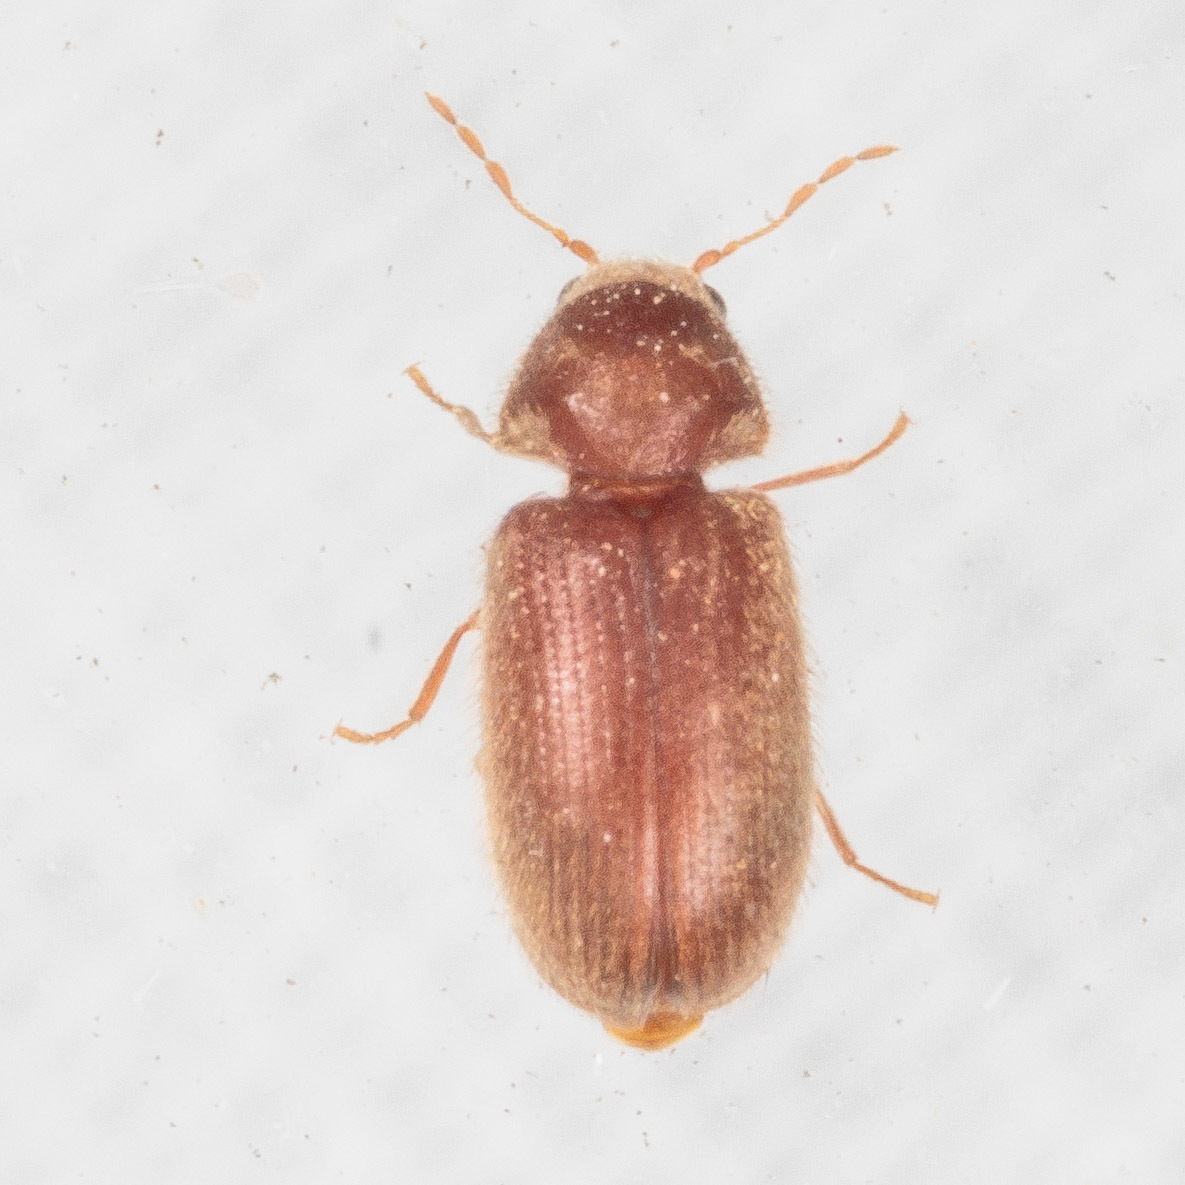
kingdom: Animalia
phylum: Arthropoda
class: Insecta
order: Coleoptera
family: Anobiidae
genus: Stegobium
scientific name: Stegobium paniceum
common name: Drugstore beetle
